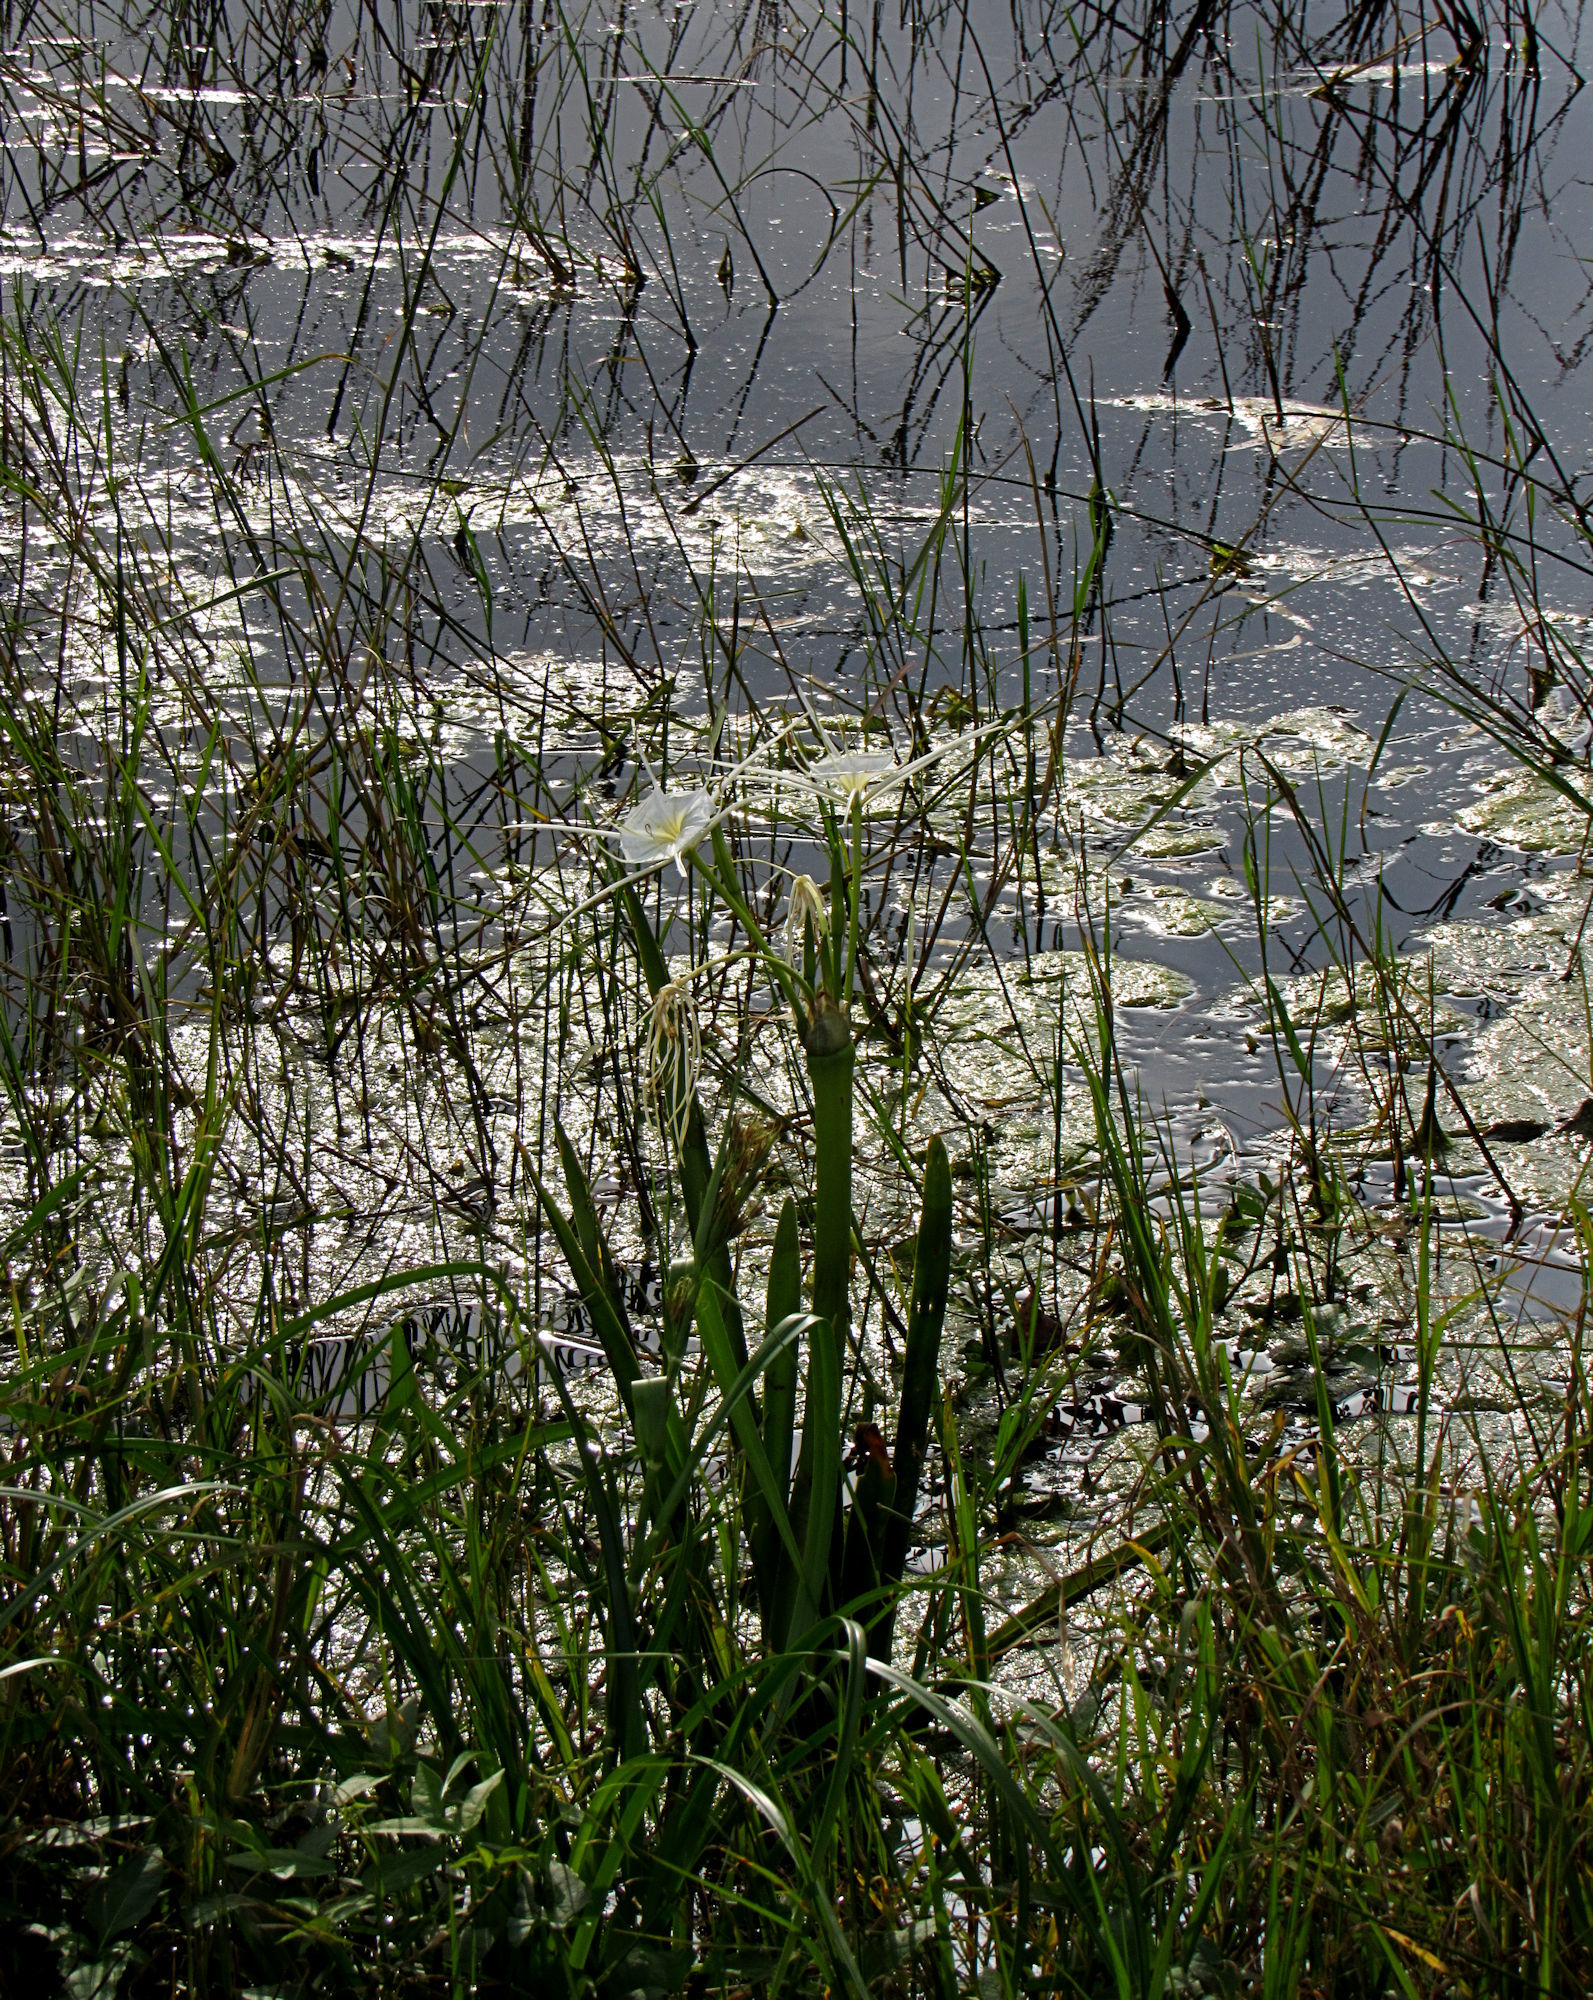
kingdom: Plantae
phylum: Tracheophyta
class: Liliopsida
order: Asparagales
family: Amaryllidaceae
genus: Hymenocallis
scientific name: Hymenocallis liriosme
